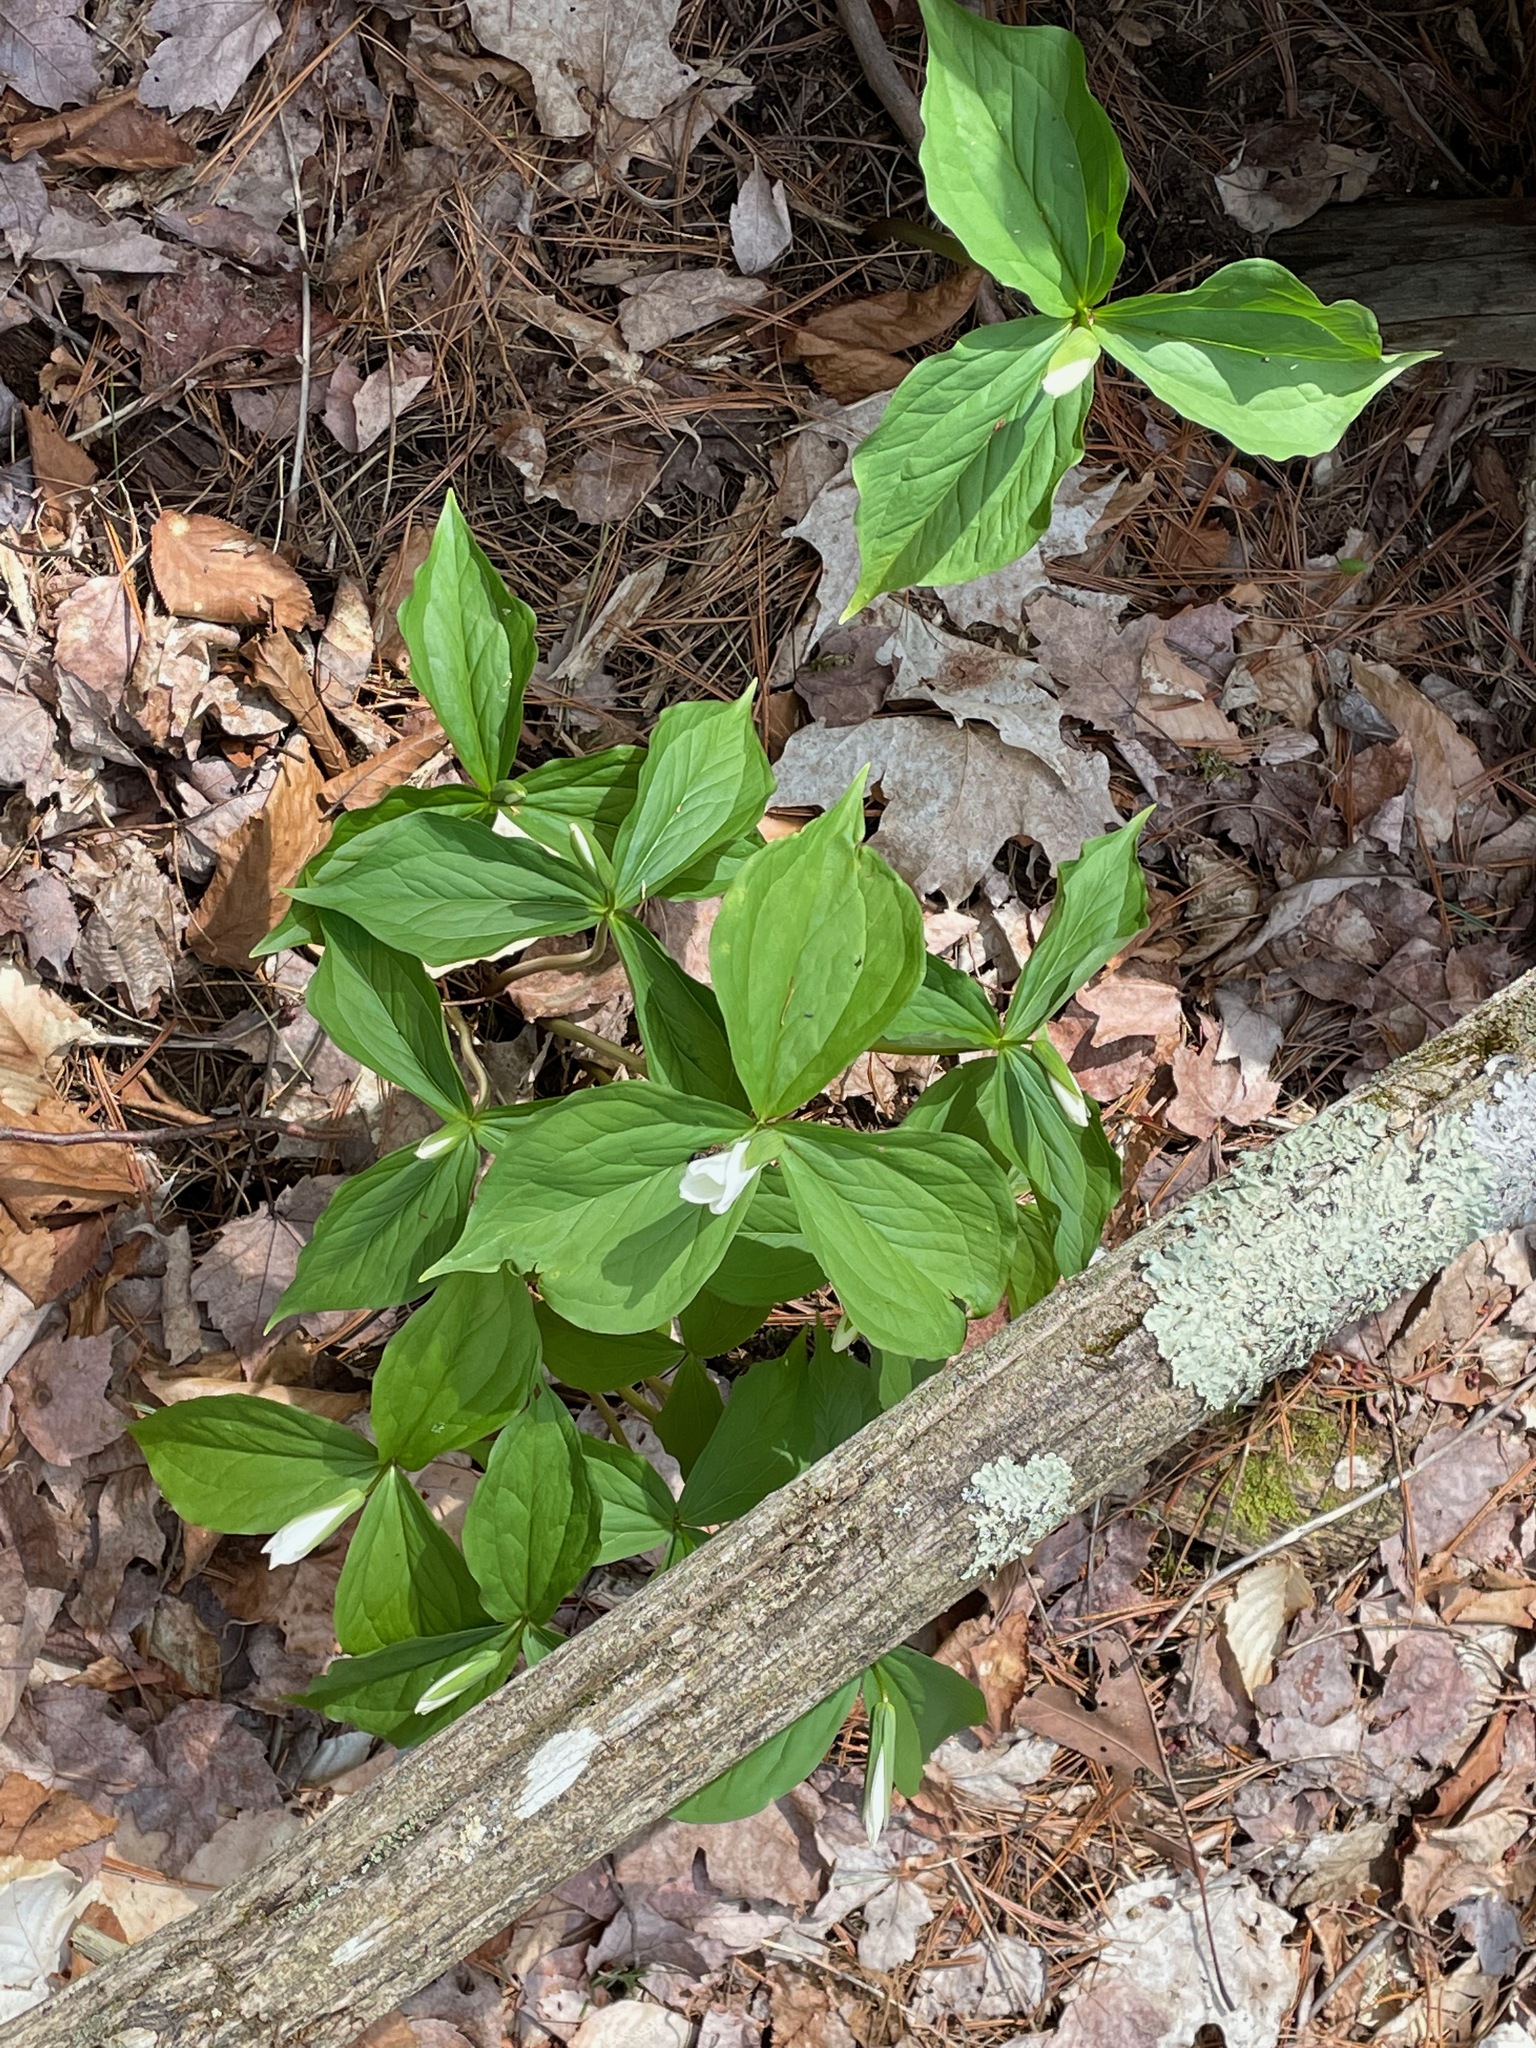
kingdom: Plantae
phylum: Tracheophyta
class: Liliopsida
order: Liliales
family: Melanthiaceae
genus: Trillium
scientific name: Trillium grandiflorum
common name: Great white trillium
